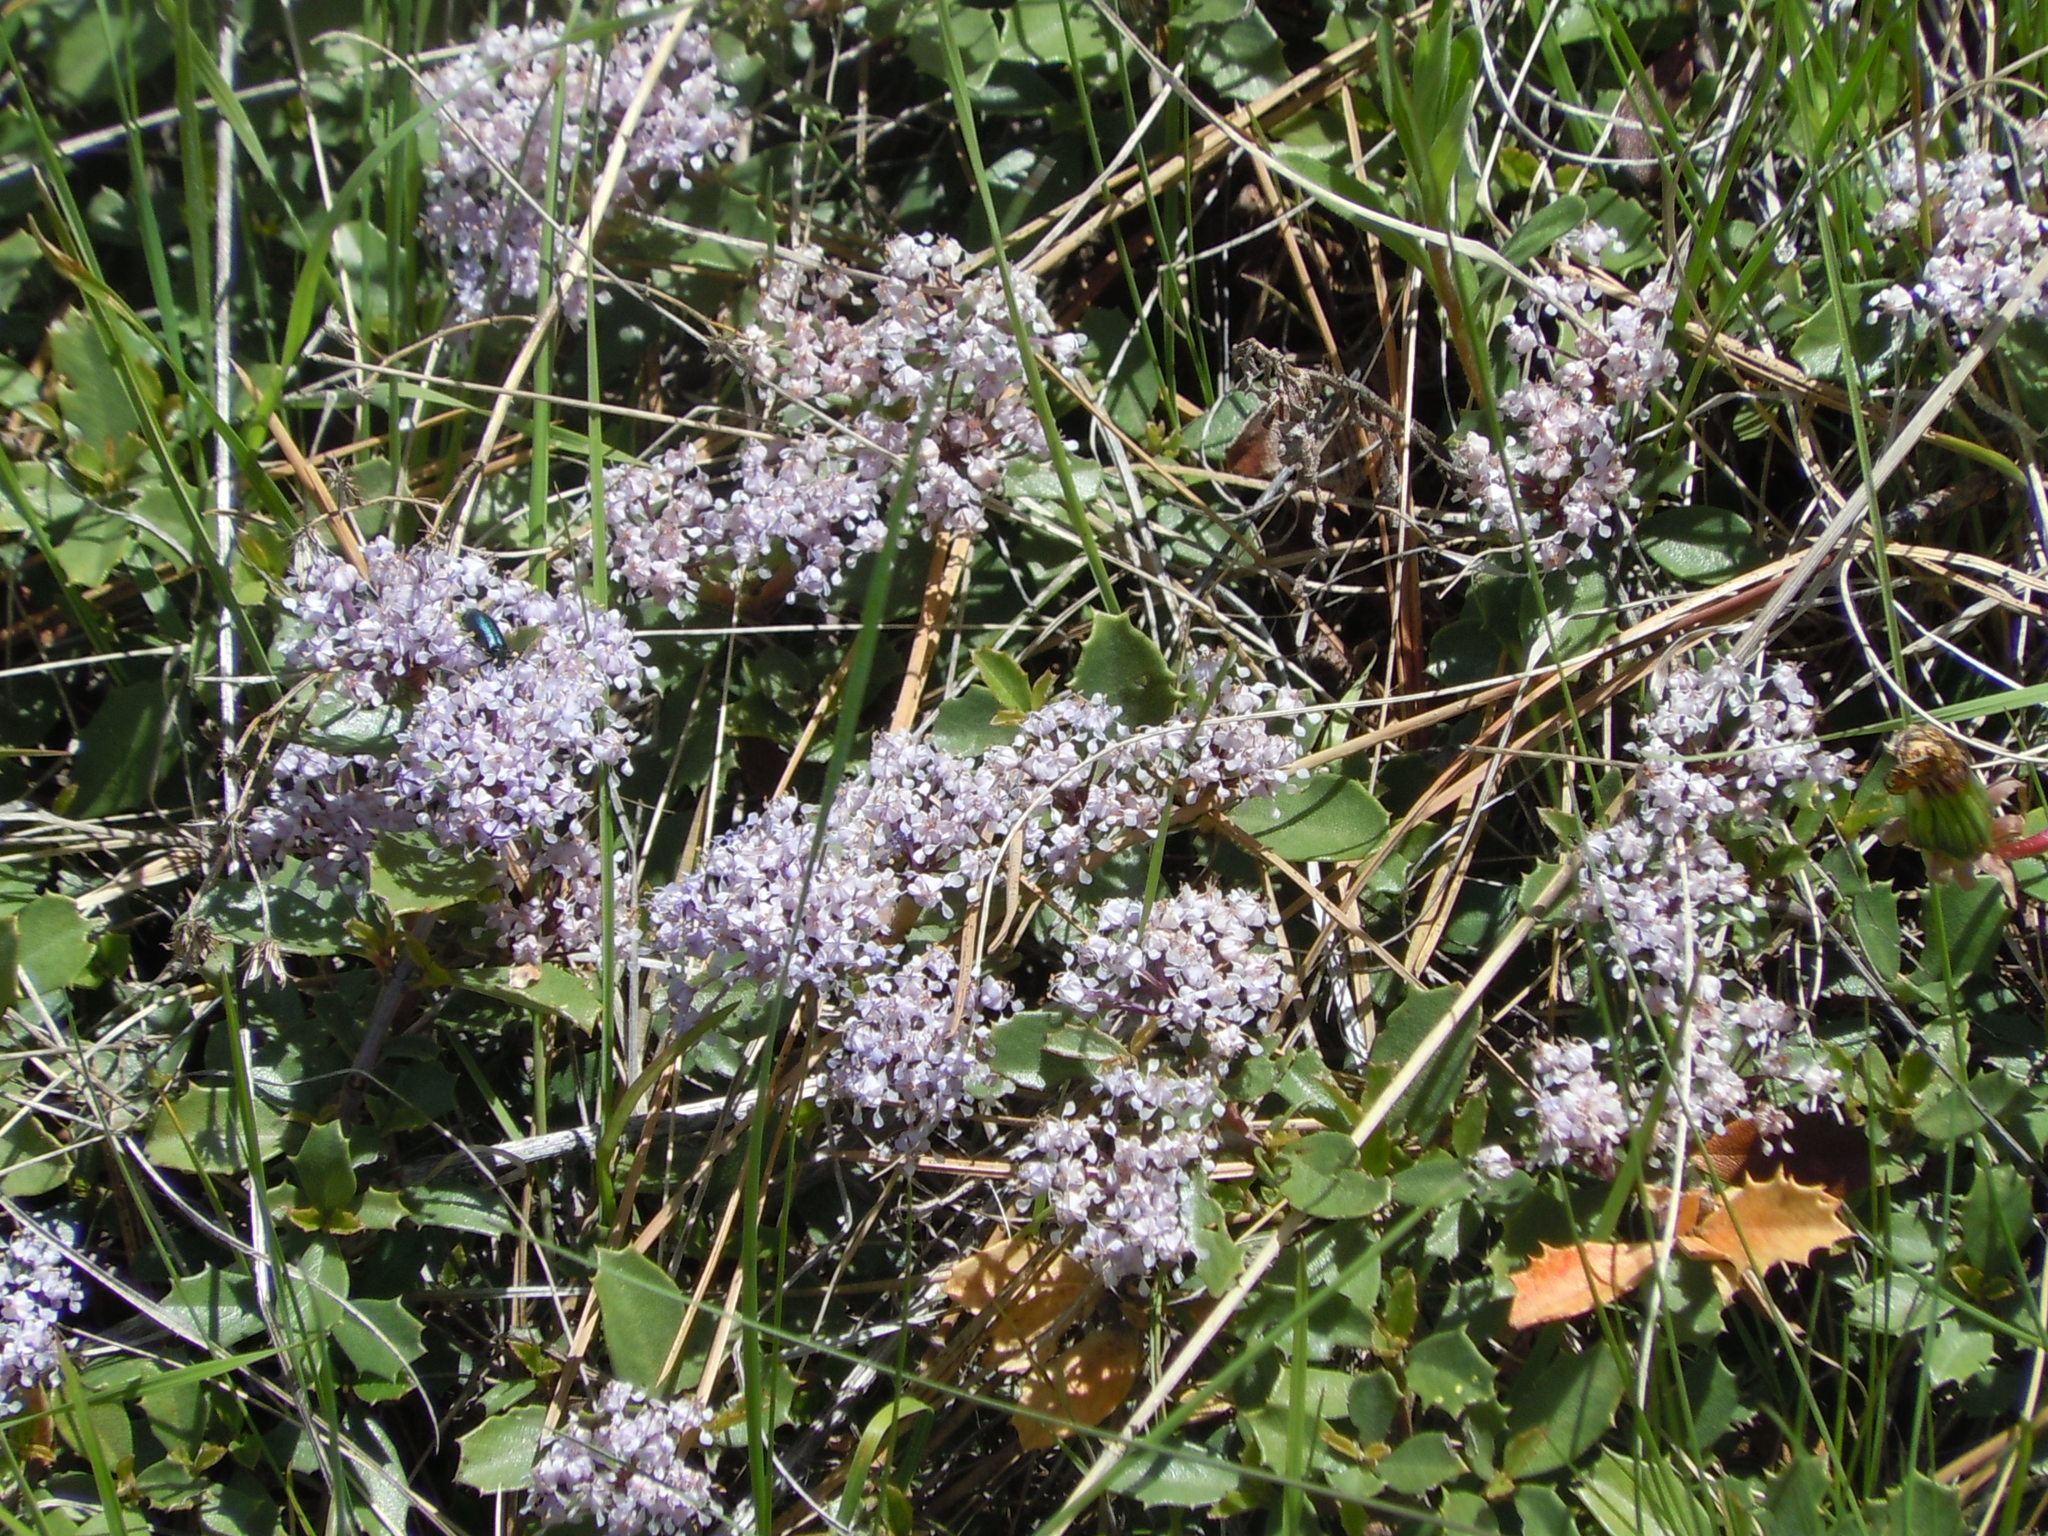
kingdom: Plantae
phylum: Tracheophyta
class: Magnoliopsida
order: Rosales
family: Rhamnaceae
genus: Ceanothus
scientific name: Ceanothus prostratus
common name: Mahala-mat
